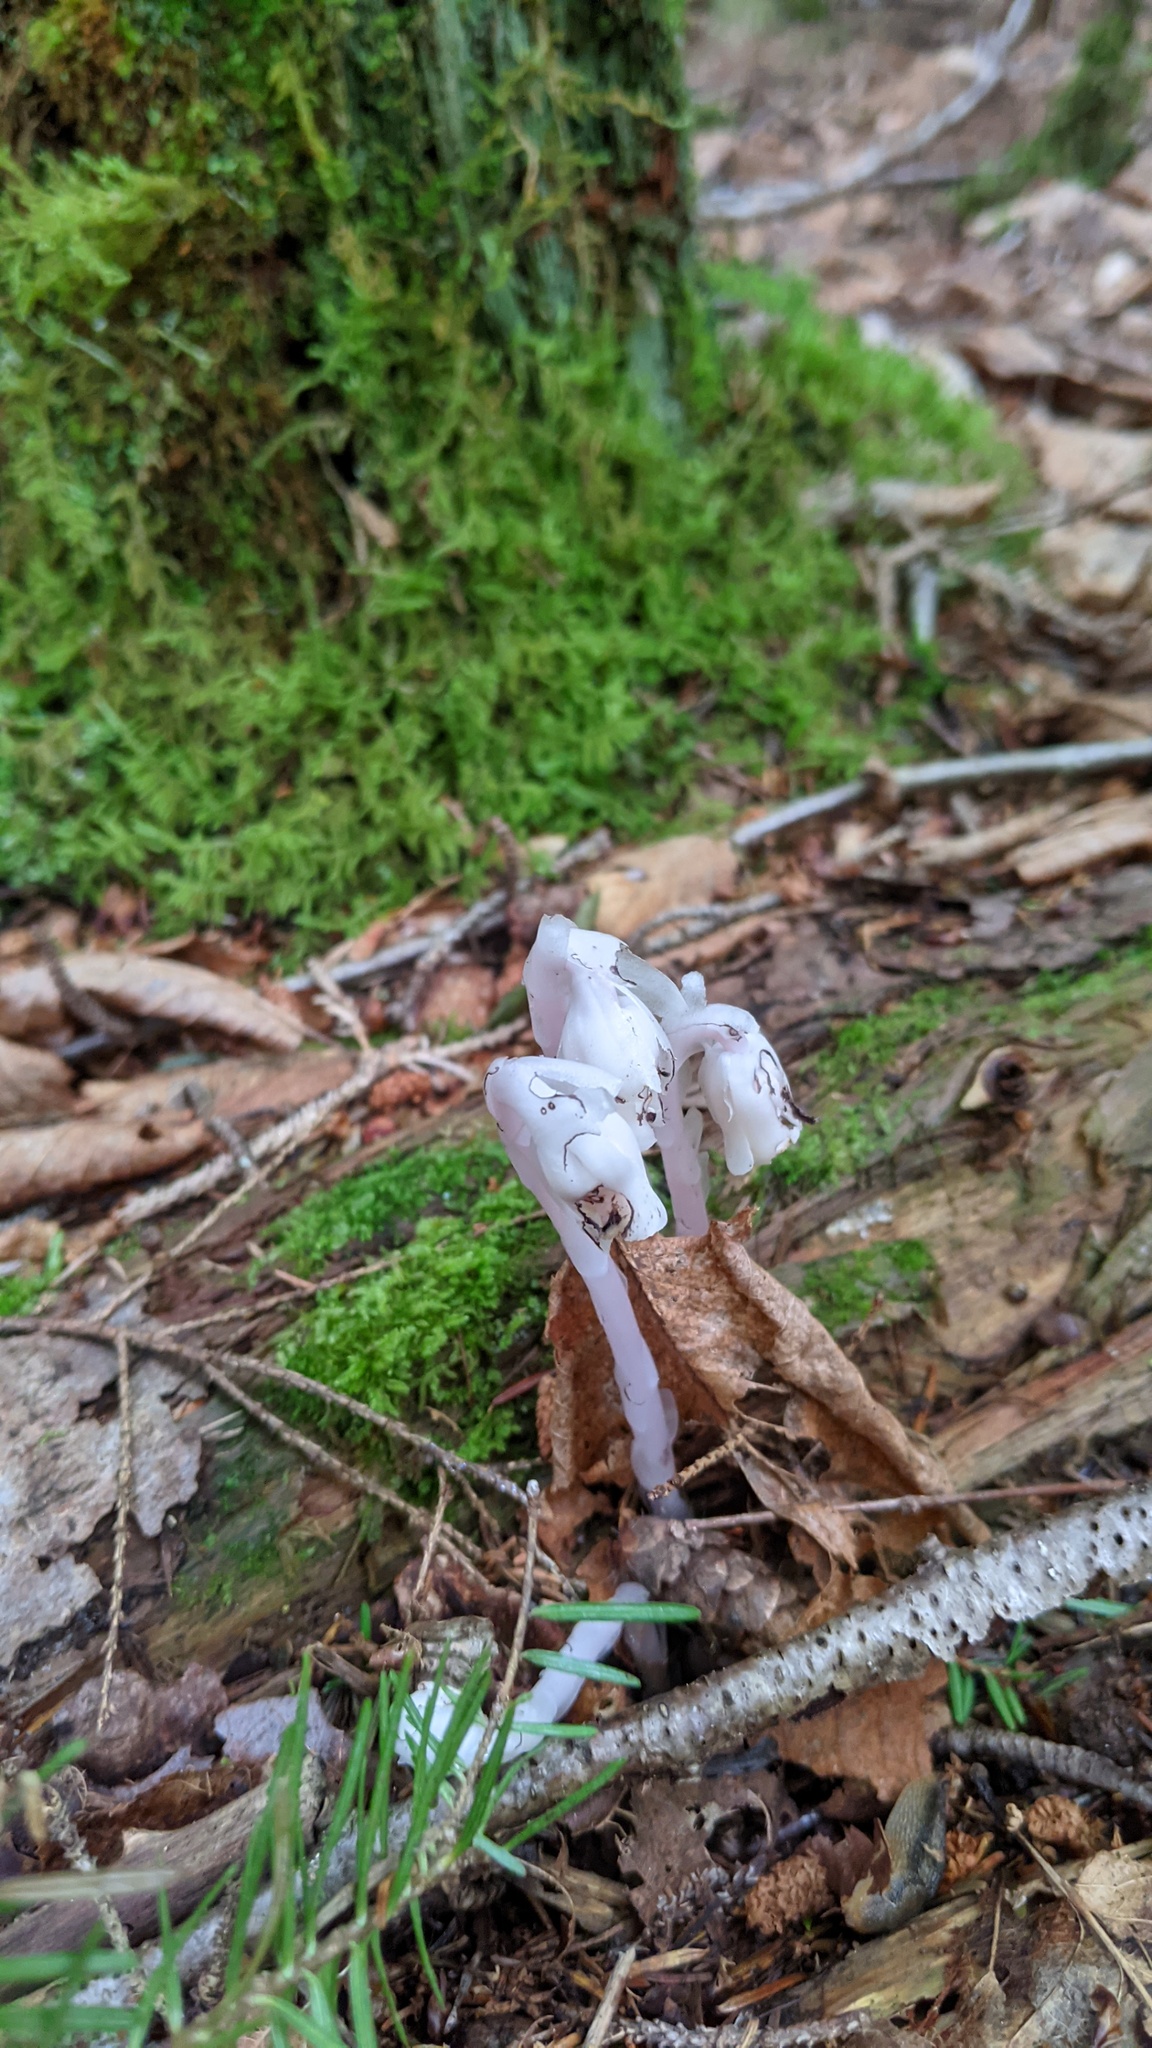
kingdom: Plantae
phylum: Tracheophyta
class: Magnoliopsida
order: Ericales
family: Ericaceae
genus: Monotropa
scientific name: Monotropa uniflora
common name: Convulsion root
